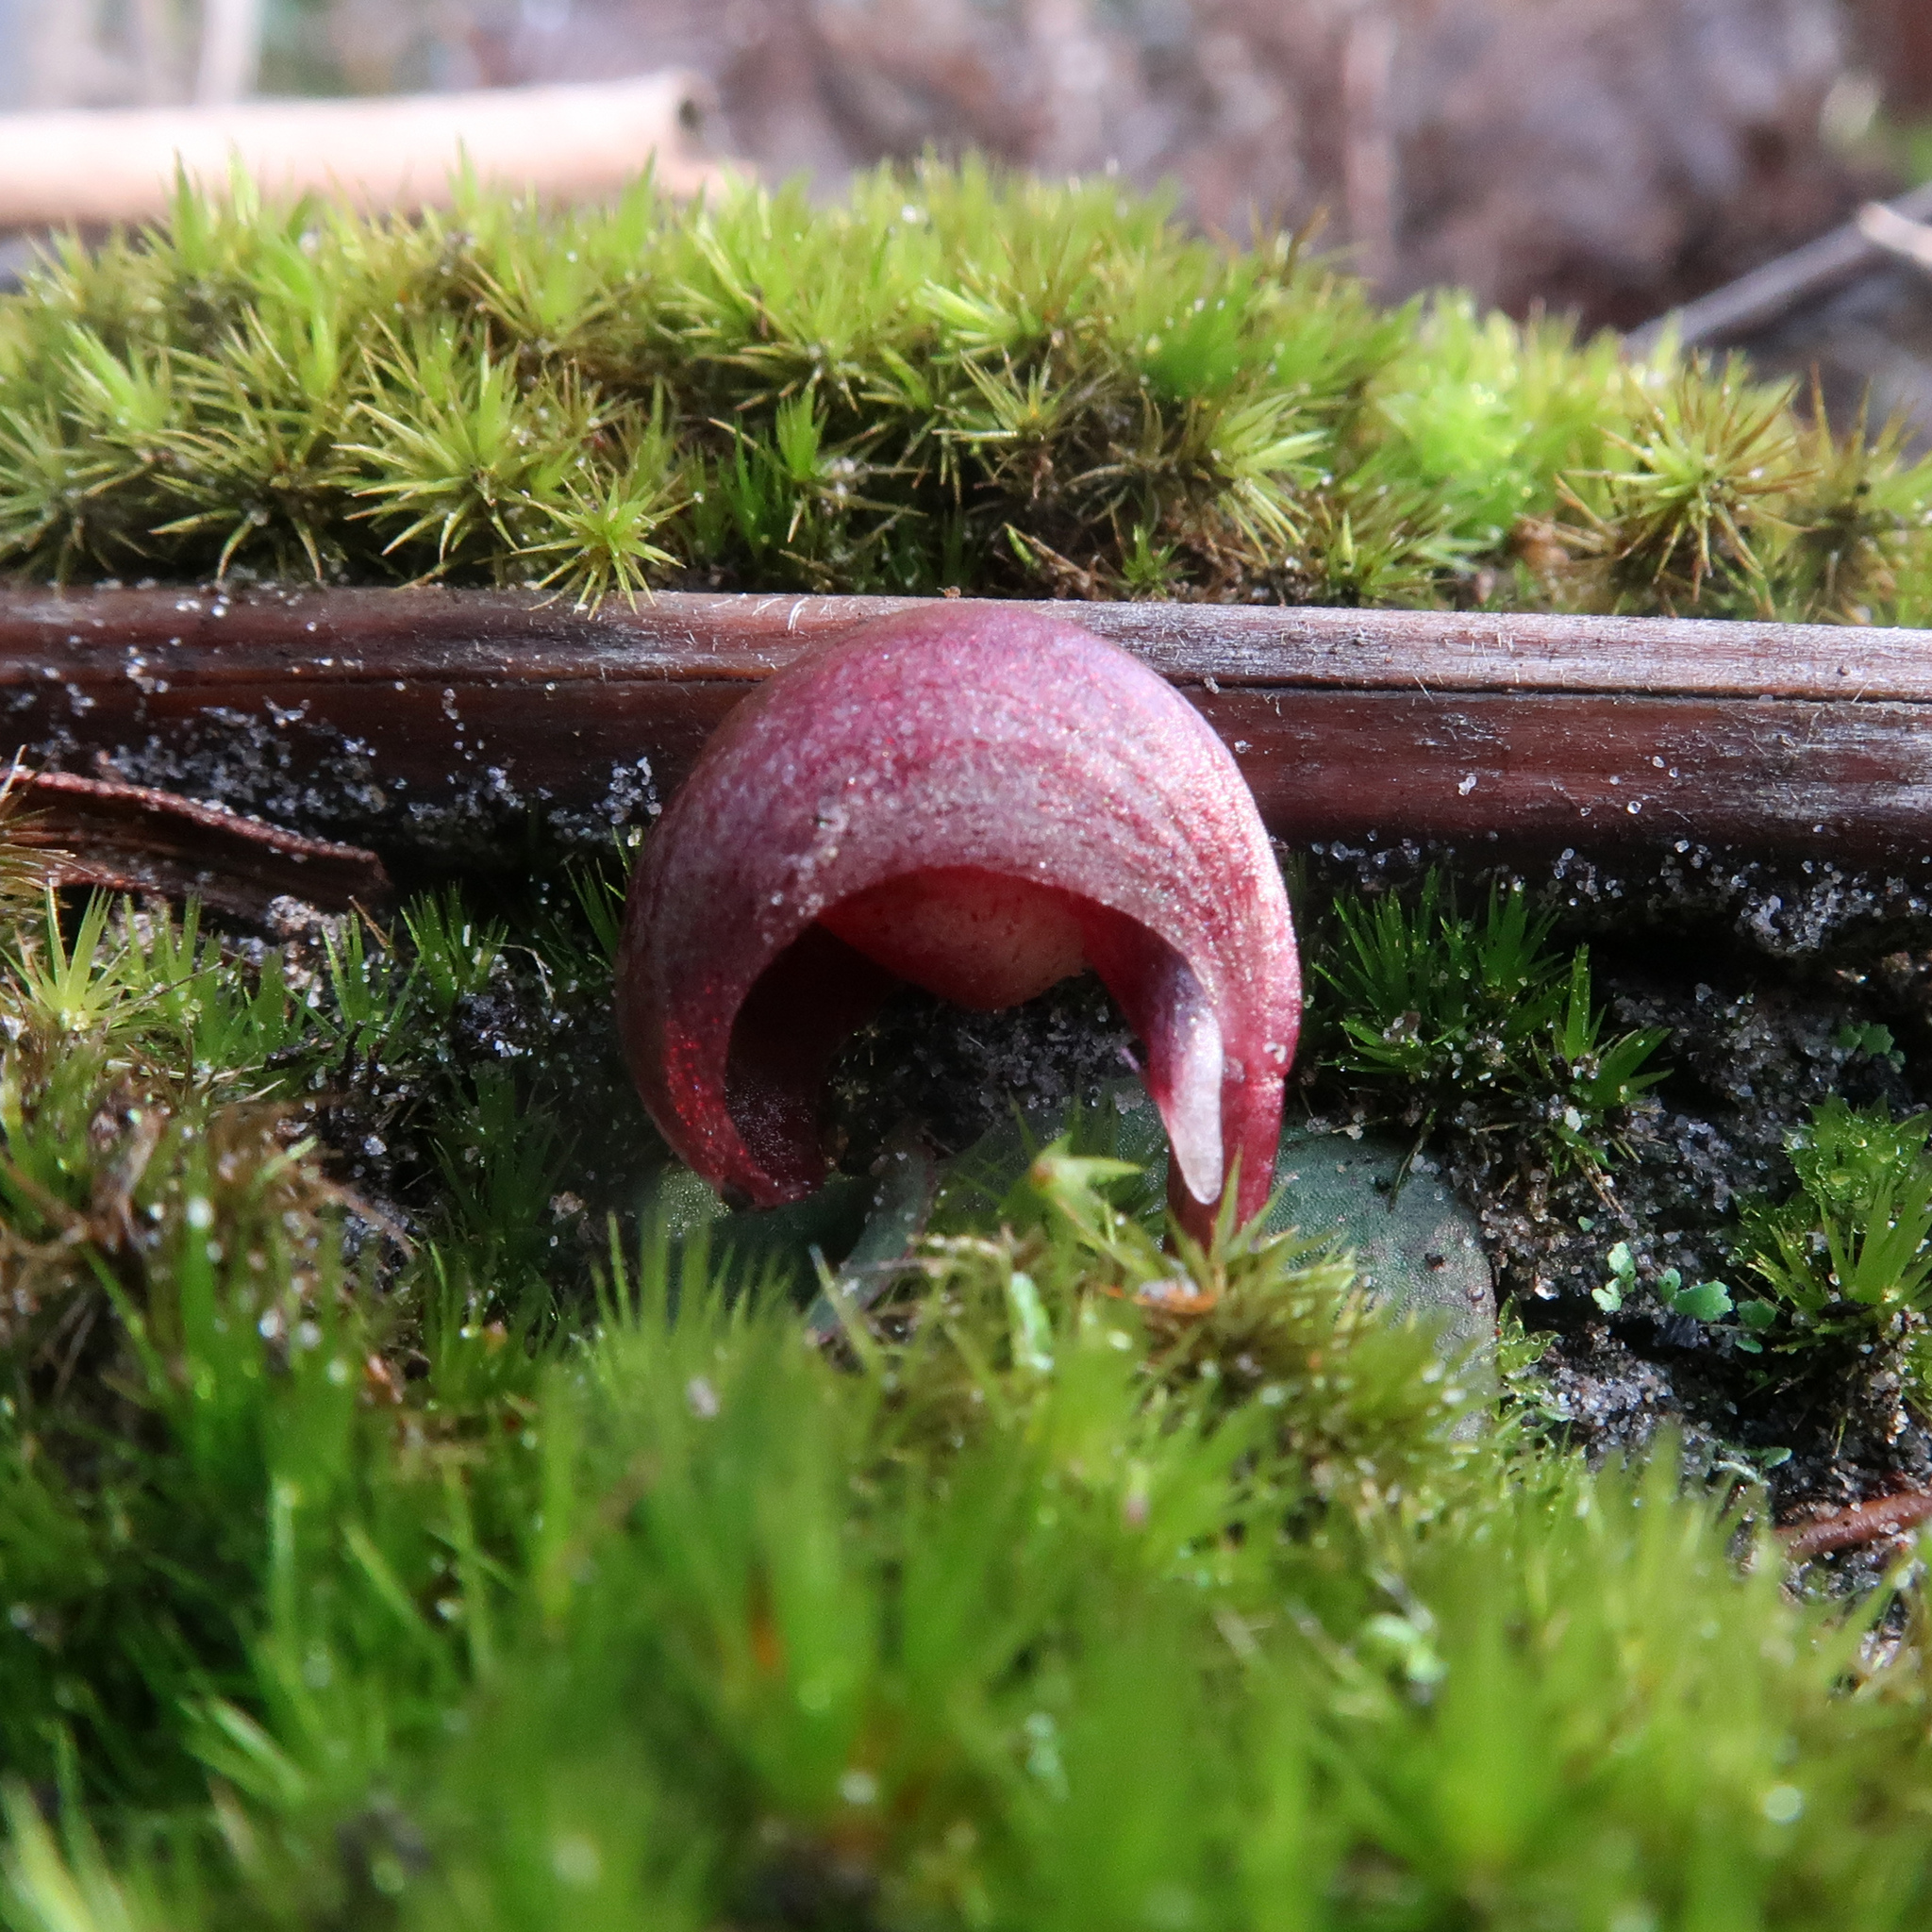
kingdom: Plantae
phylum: Tracheophyta
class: Liliopsida
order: Asparagales
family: Orchidaceae
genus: Corybas
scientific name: Corybas aconitiflorus
